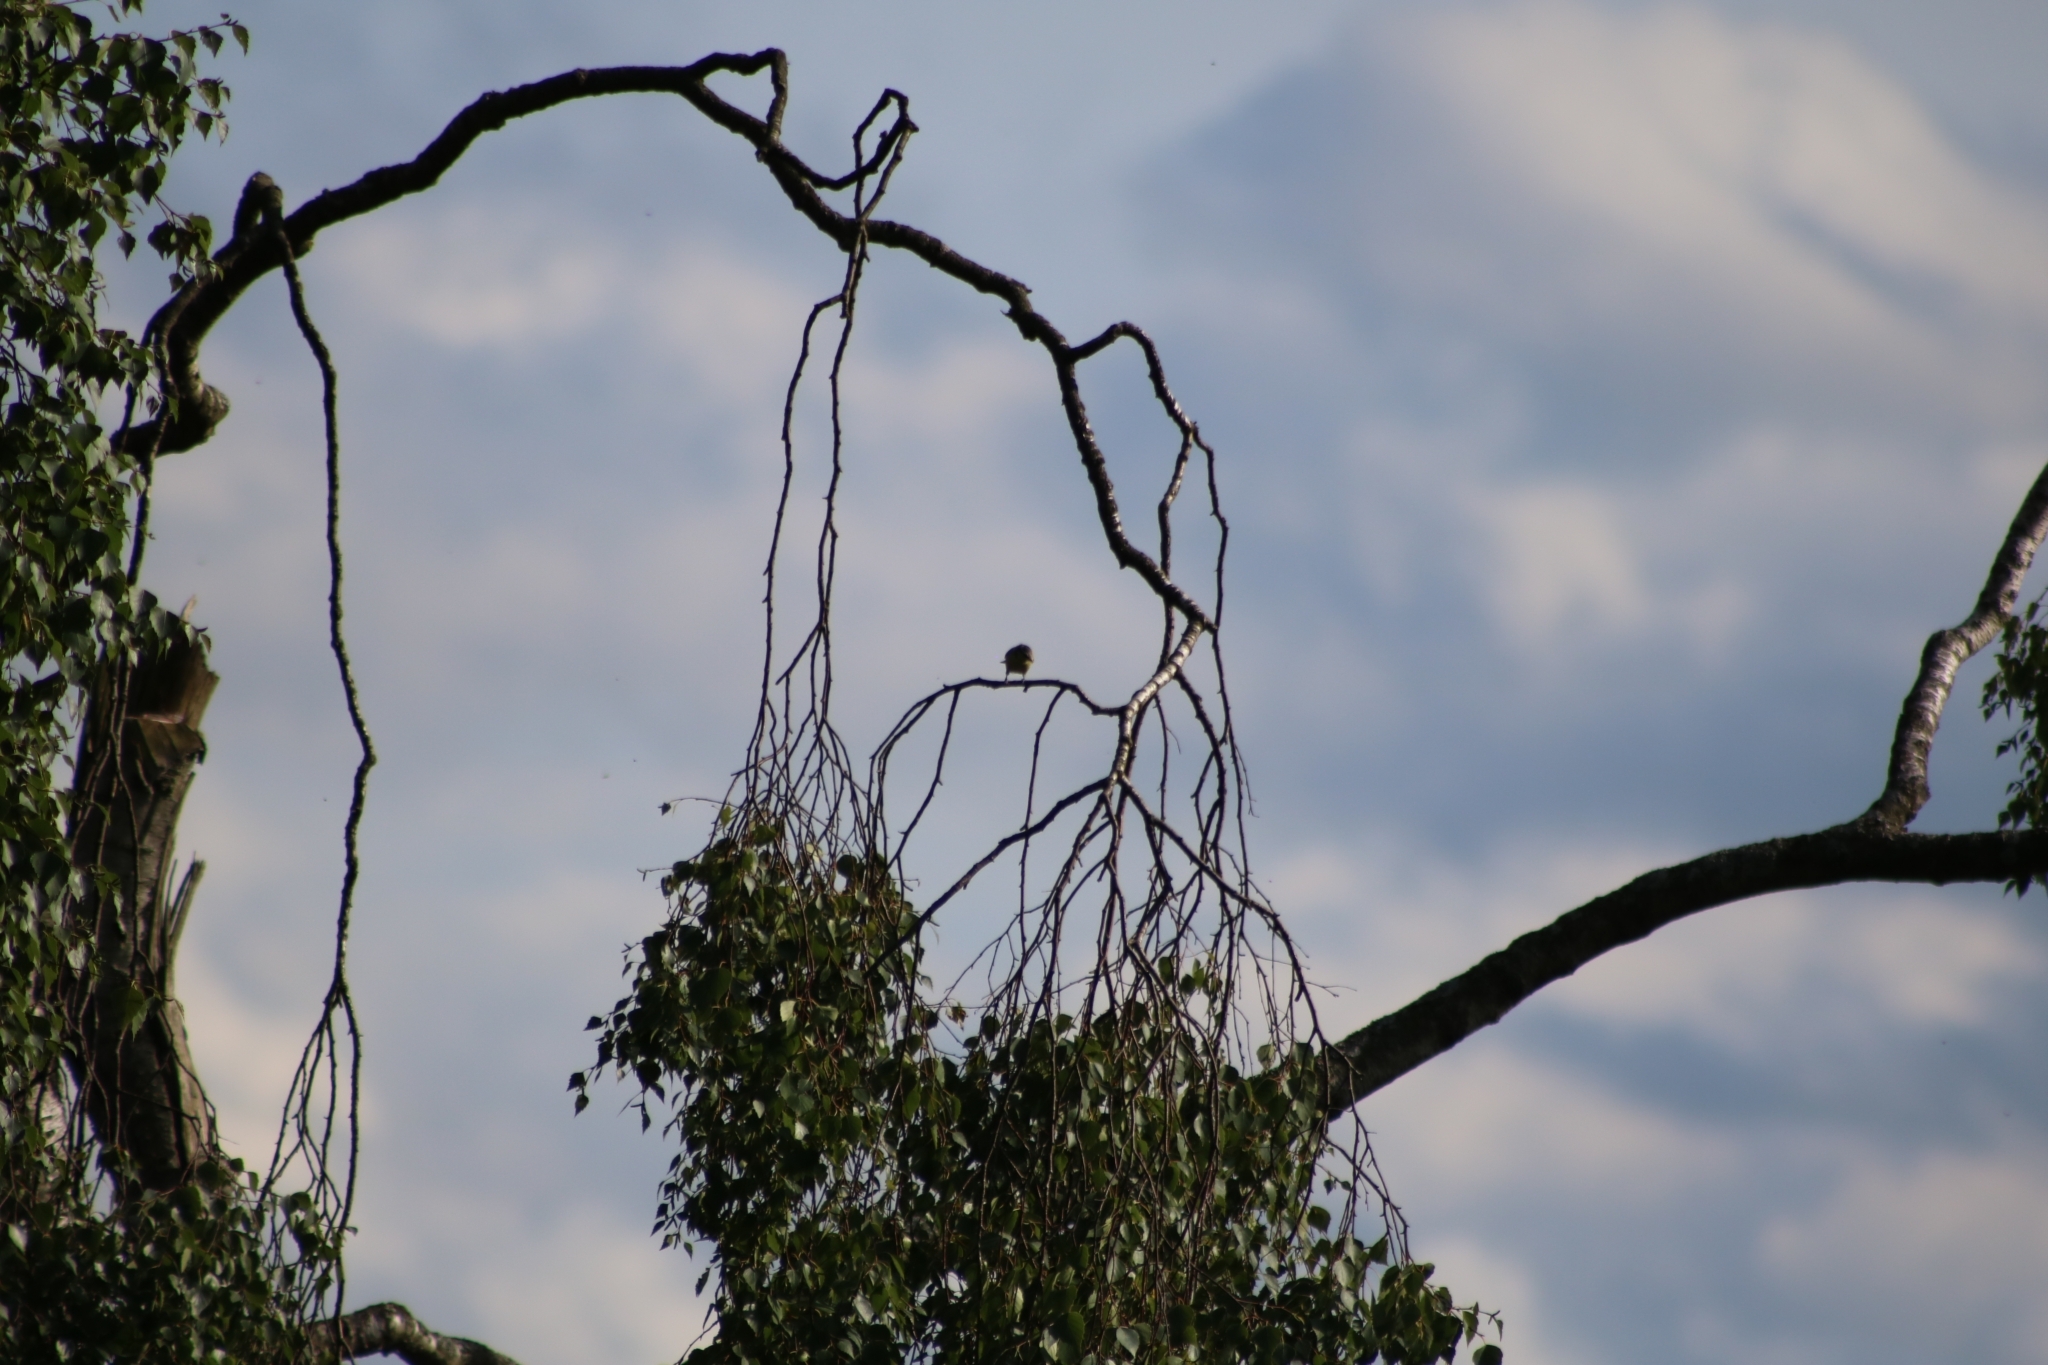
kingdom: Animalia
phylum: Chordata
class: Aves
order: Passeriformes
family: Paridae
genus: Cyanistes
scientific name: Cyanistes caeruleus
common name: Eurasian blue tit
